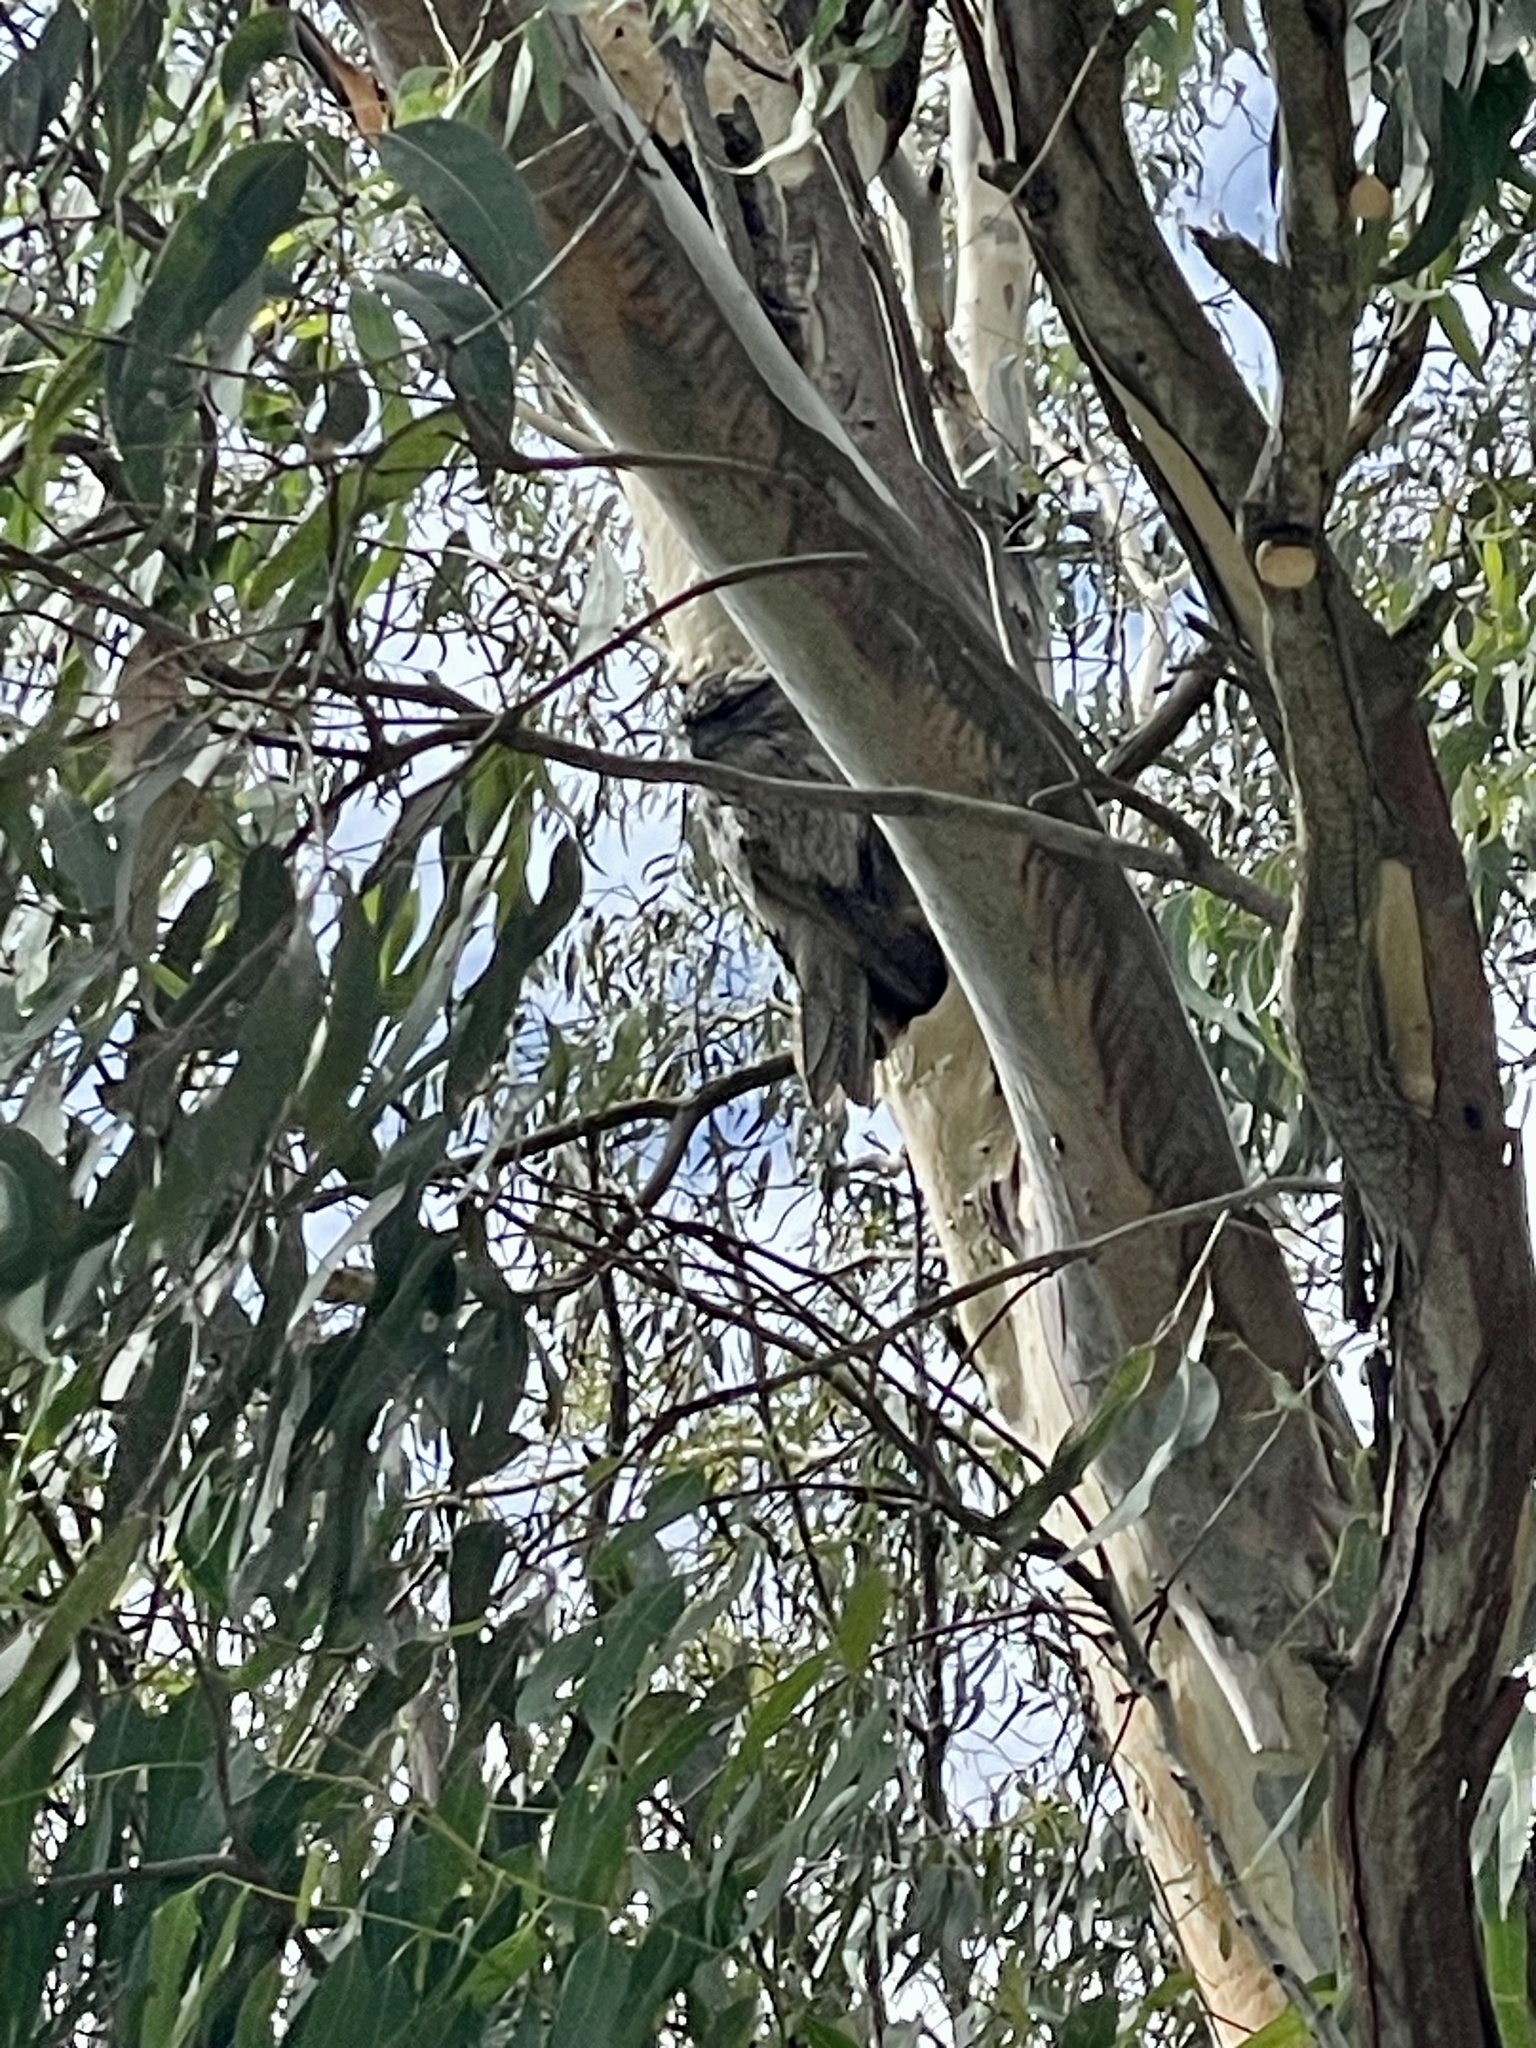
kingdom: Animalia
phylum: Chordata
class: Aves
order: Caprimulgiformes
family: Podargidae
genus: Podargus
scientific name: Podargus strigoides
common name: Tawny frogmouth
